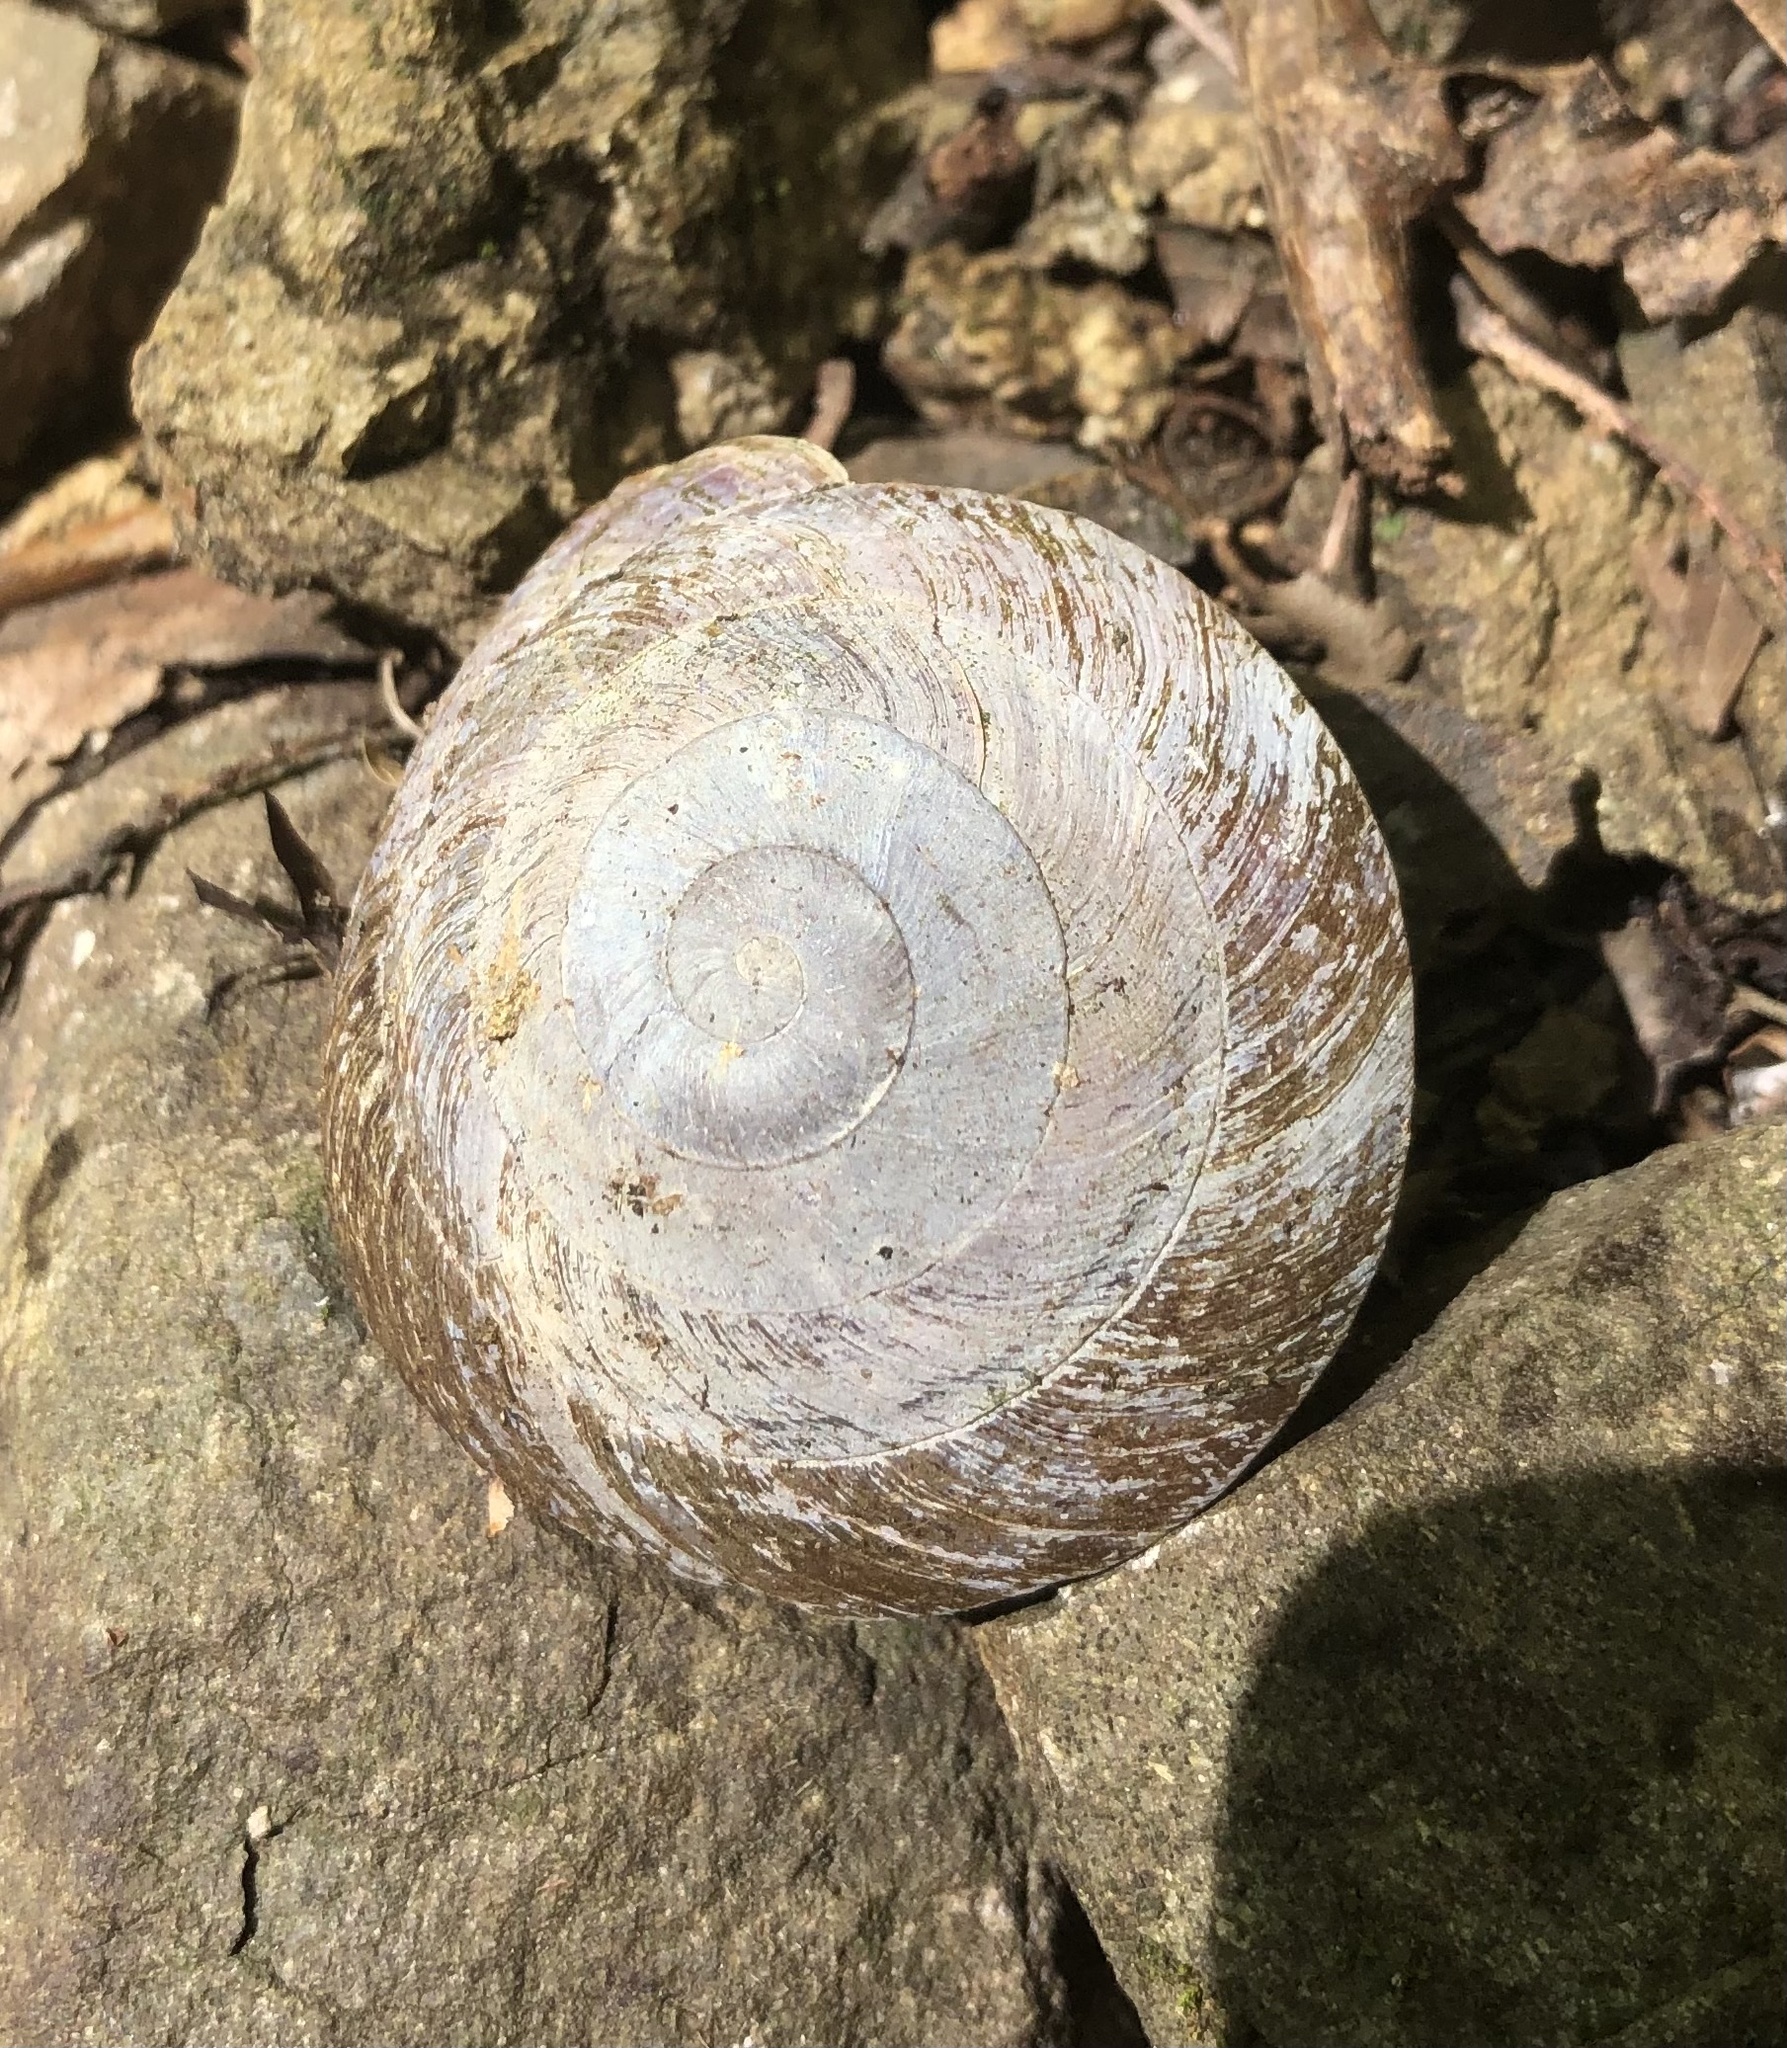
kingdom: Animalia
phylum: Mollusca
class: Gastropoda
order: Stylommatophora
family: Solaropsidae
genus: Caracolus
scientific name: Caracolus carocolla
